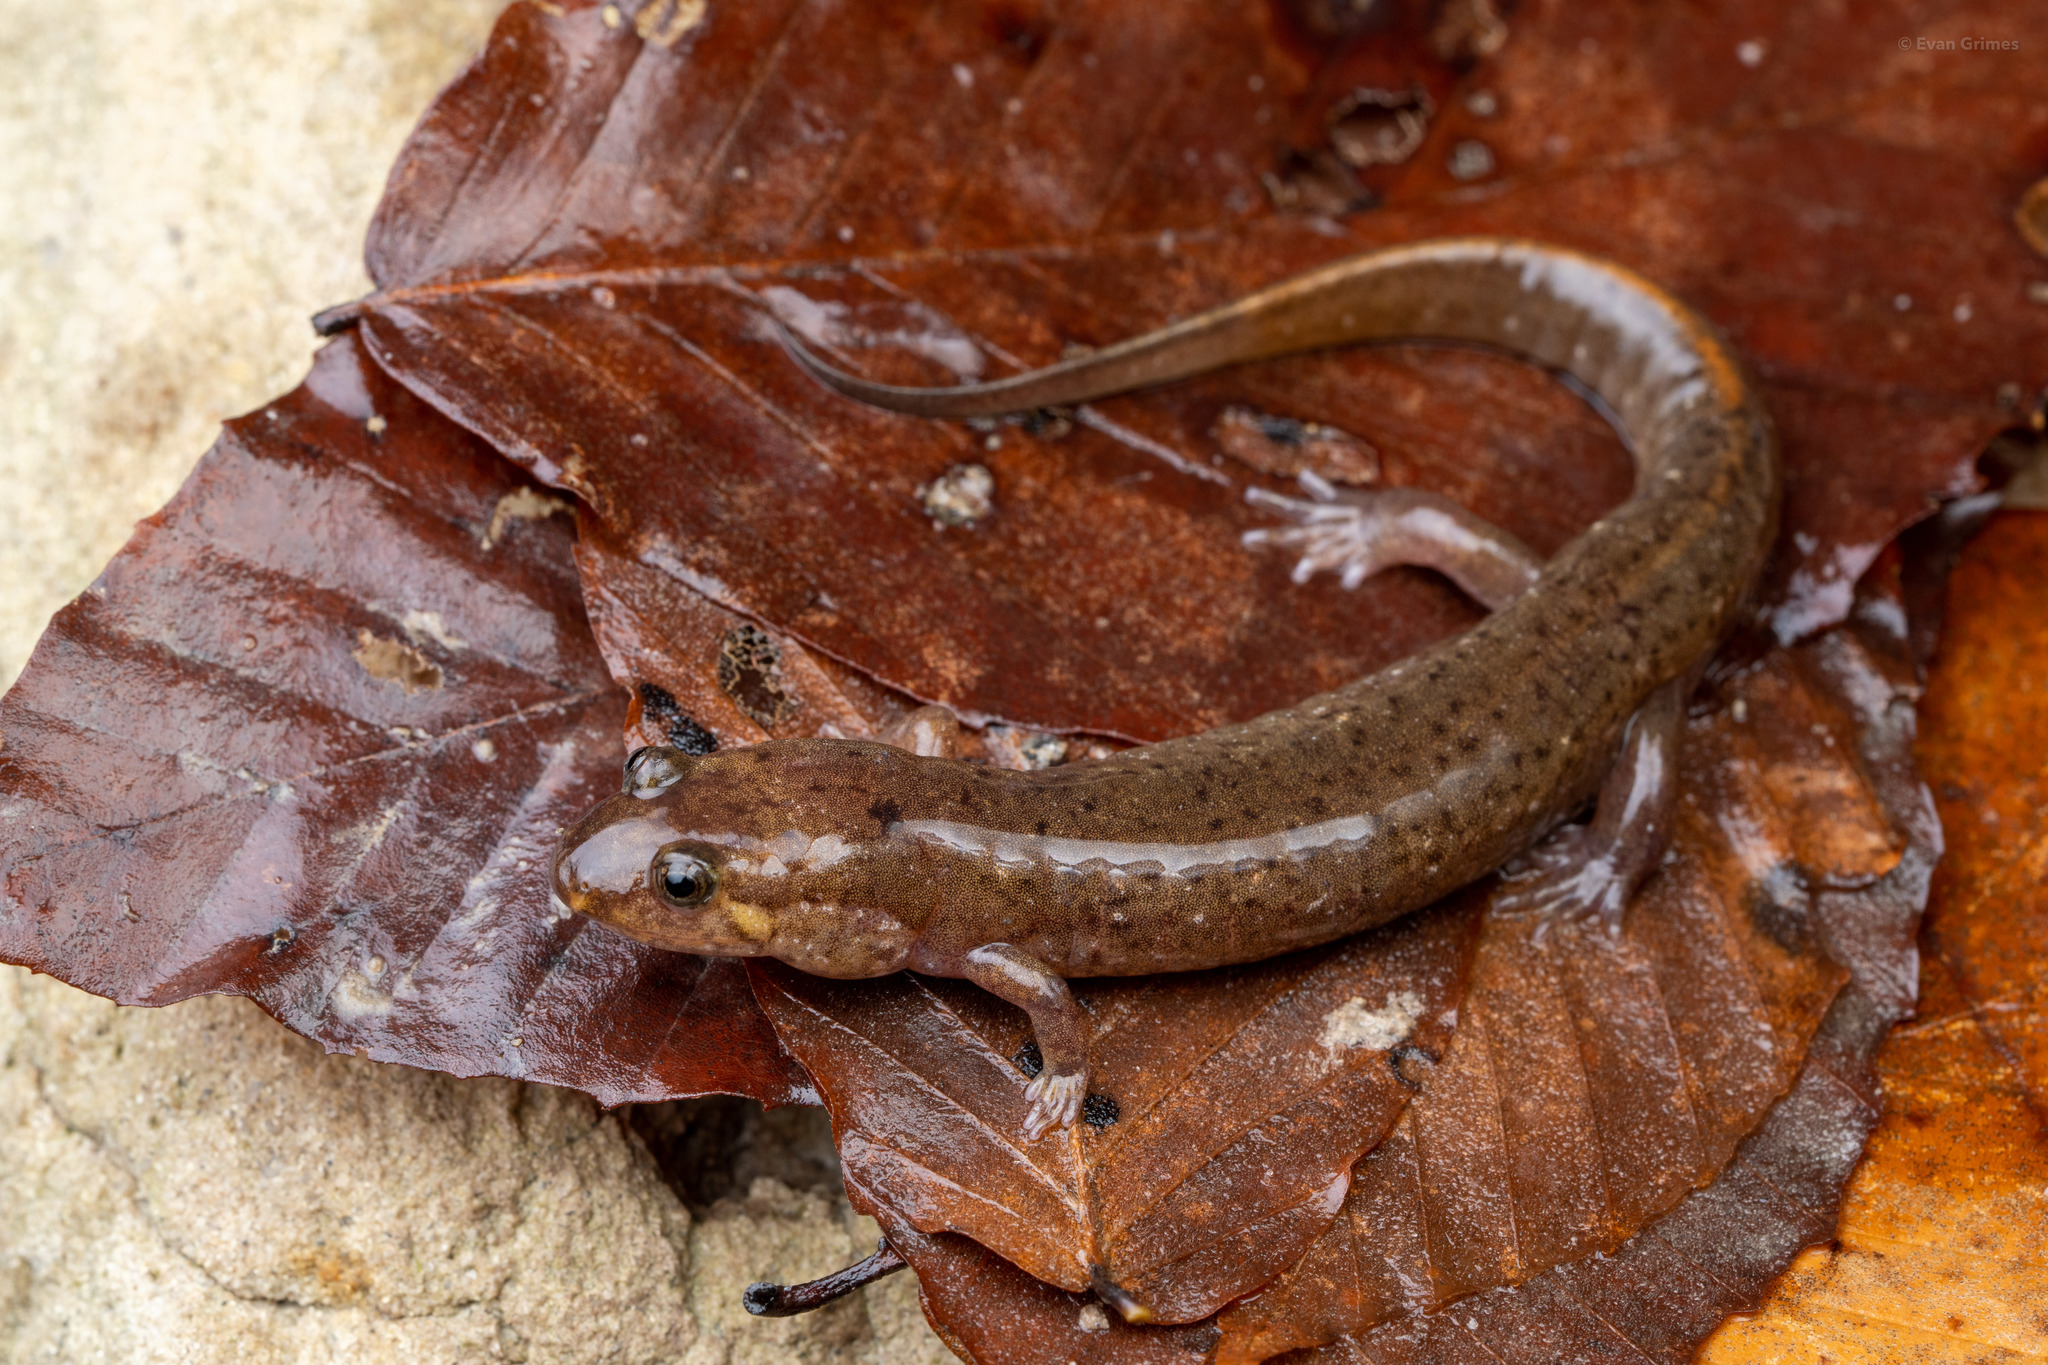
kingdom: Animalia
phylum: Chordata
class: Amphibia
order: Caudata
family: Plethodontidae
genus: Desmognathus
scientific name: Desmognathus
